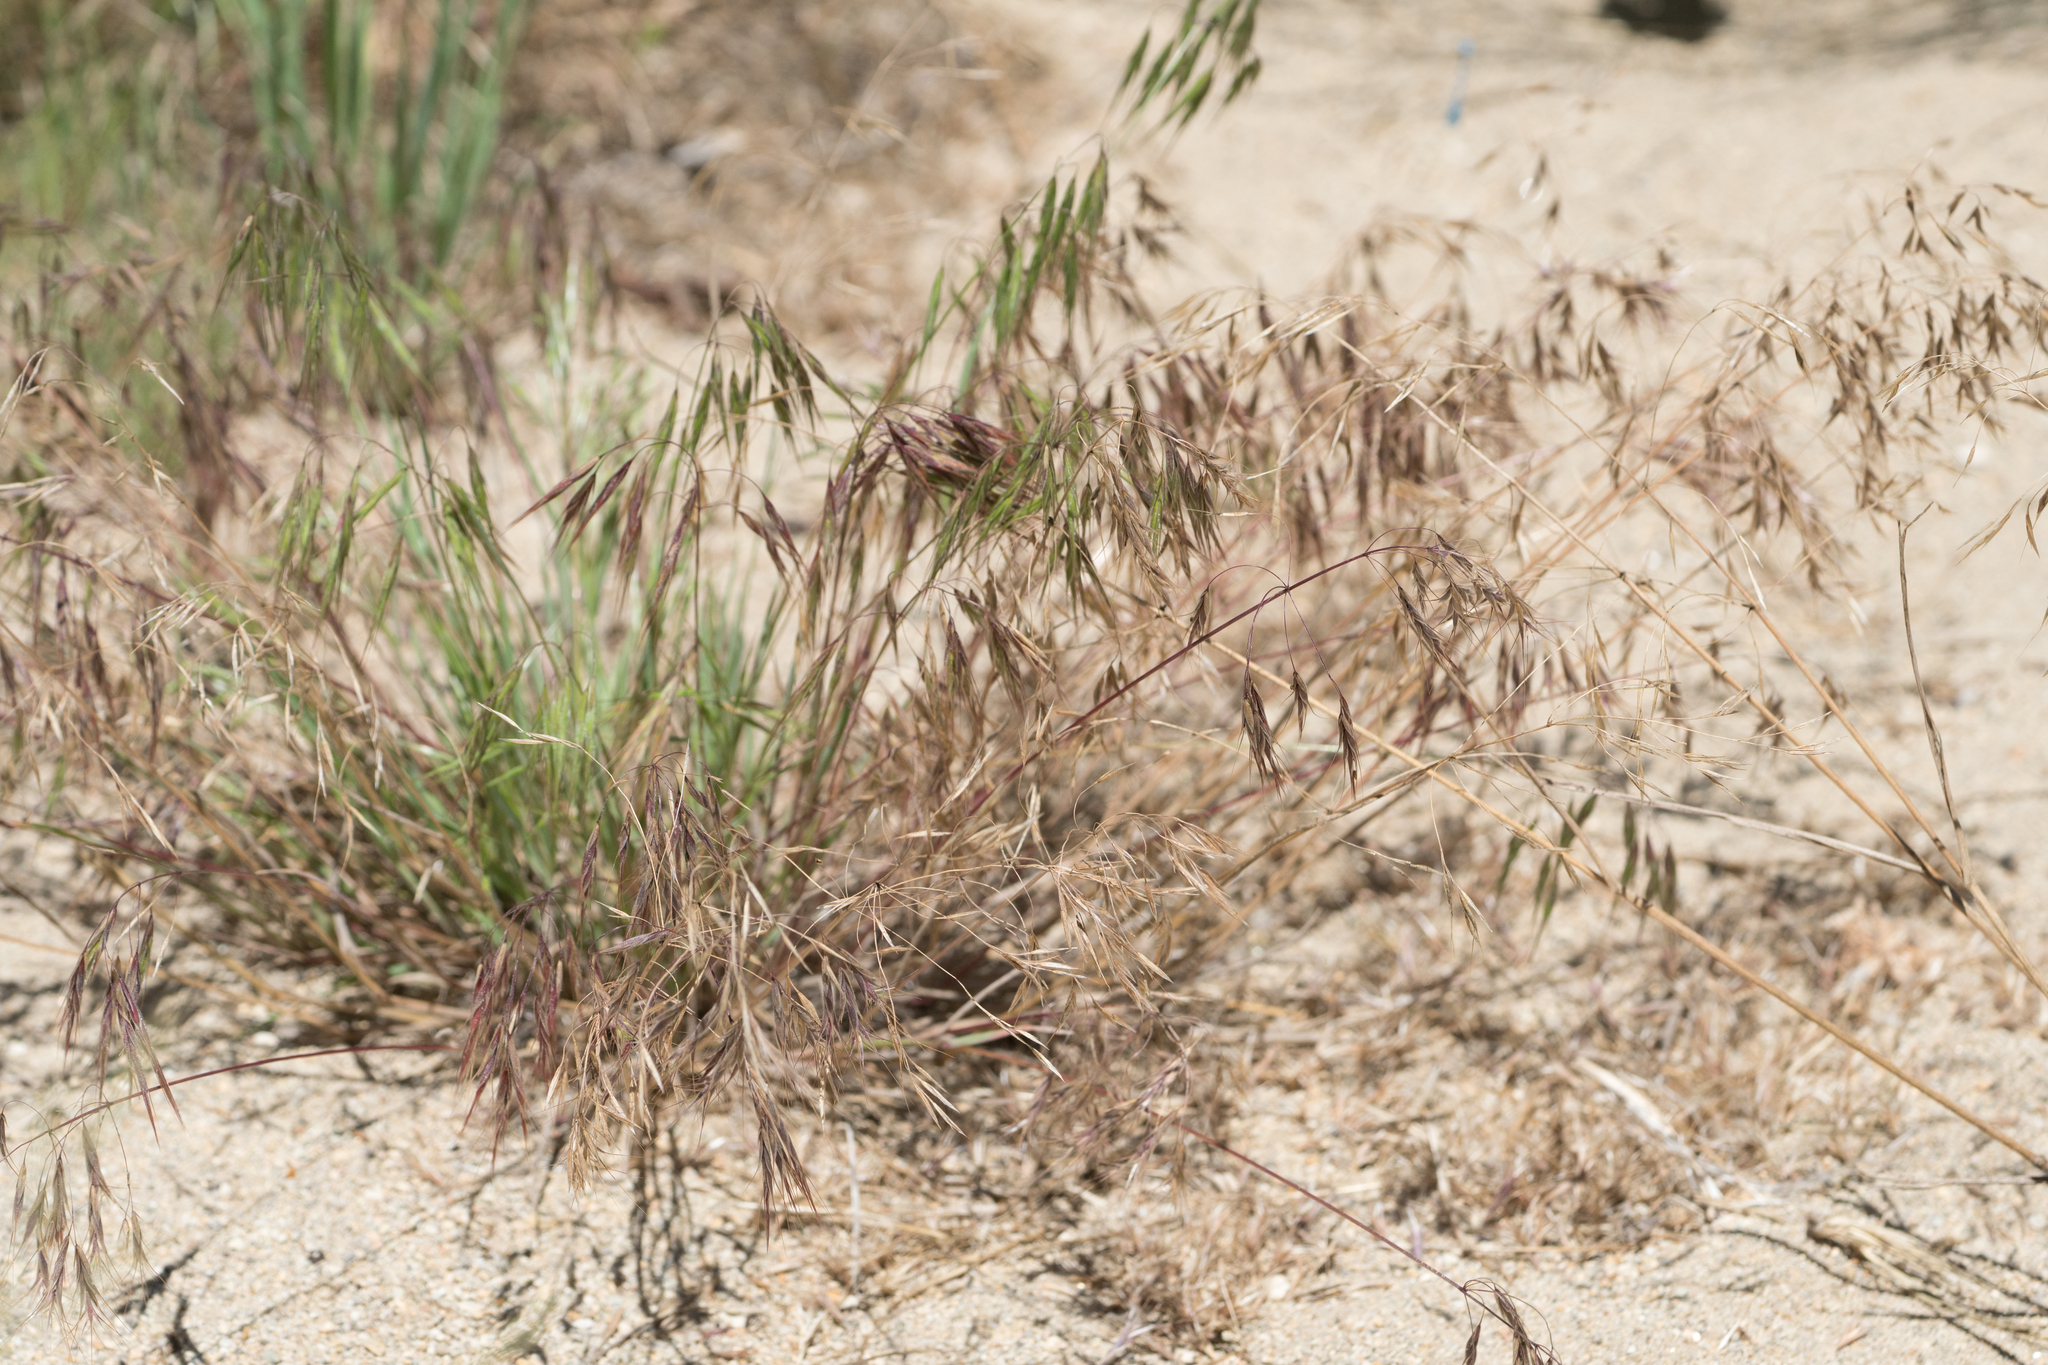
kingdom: Plantae
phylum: Tracheophyta
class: Liliopsida
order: Poales
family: Poaceae
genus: Bromus
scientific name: Bromus tectorum
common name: Cheatgrass
